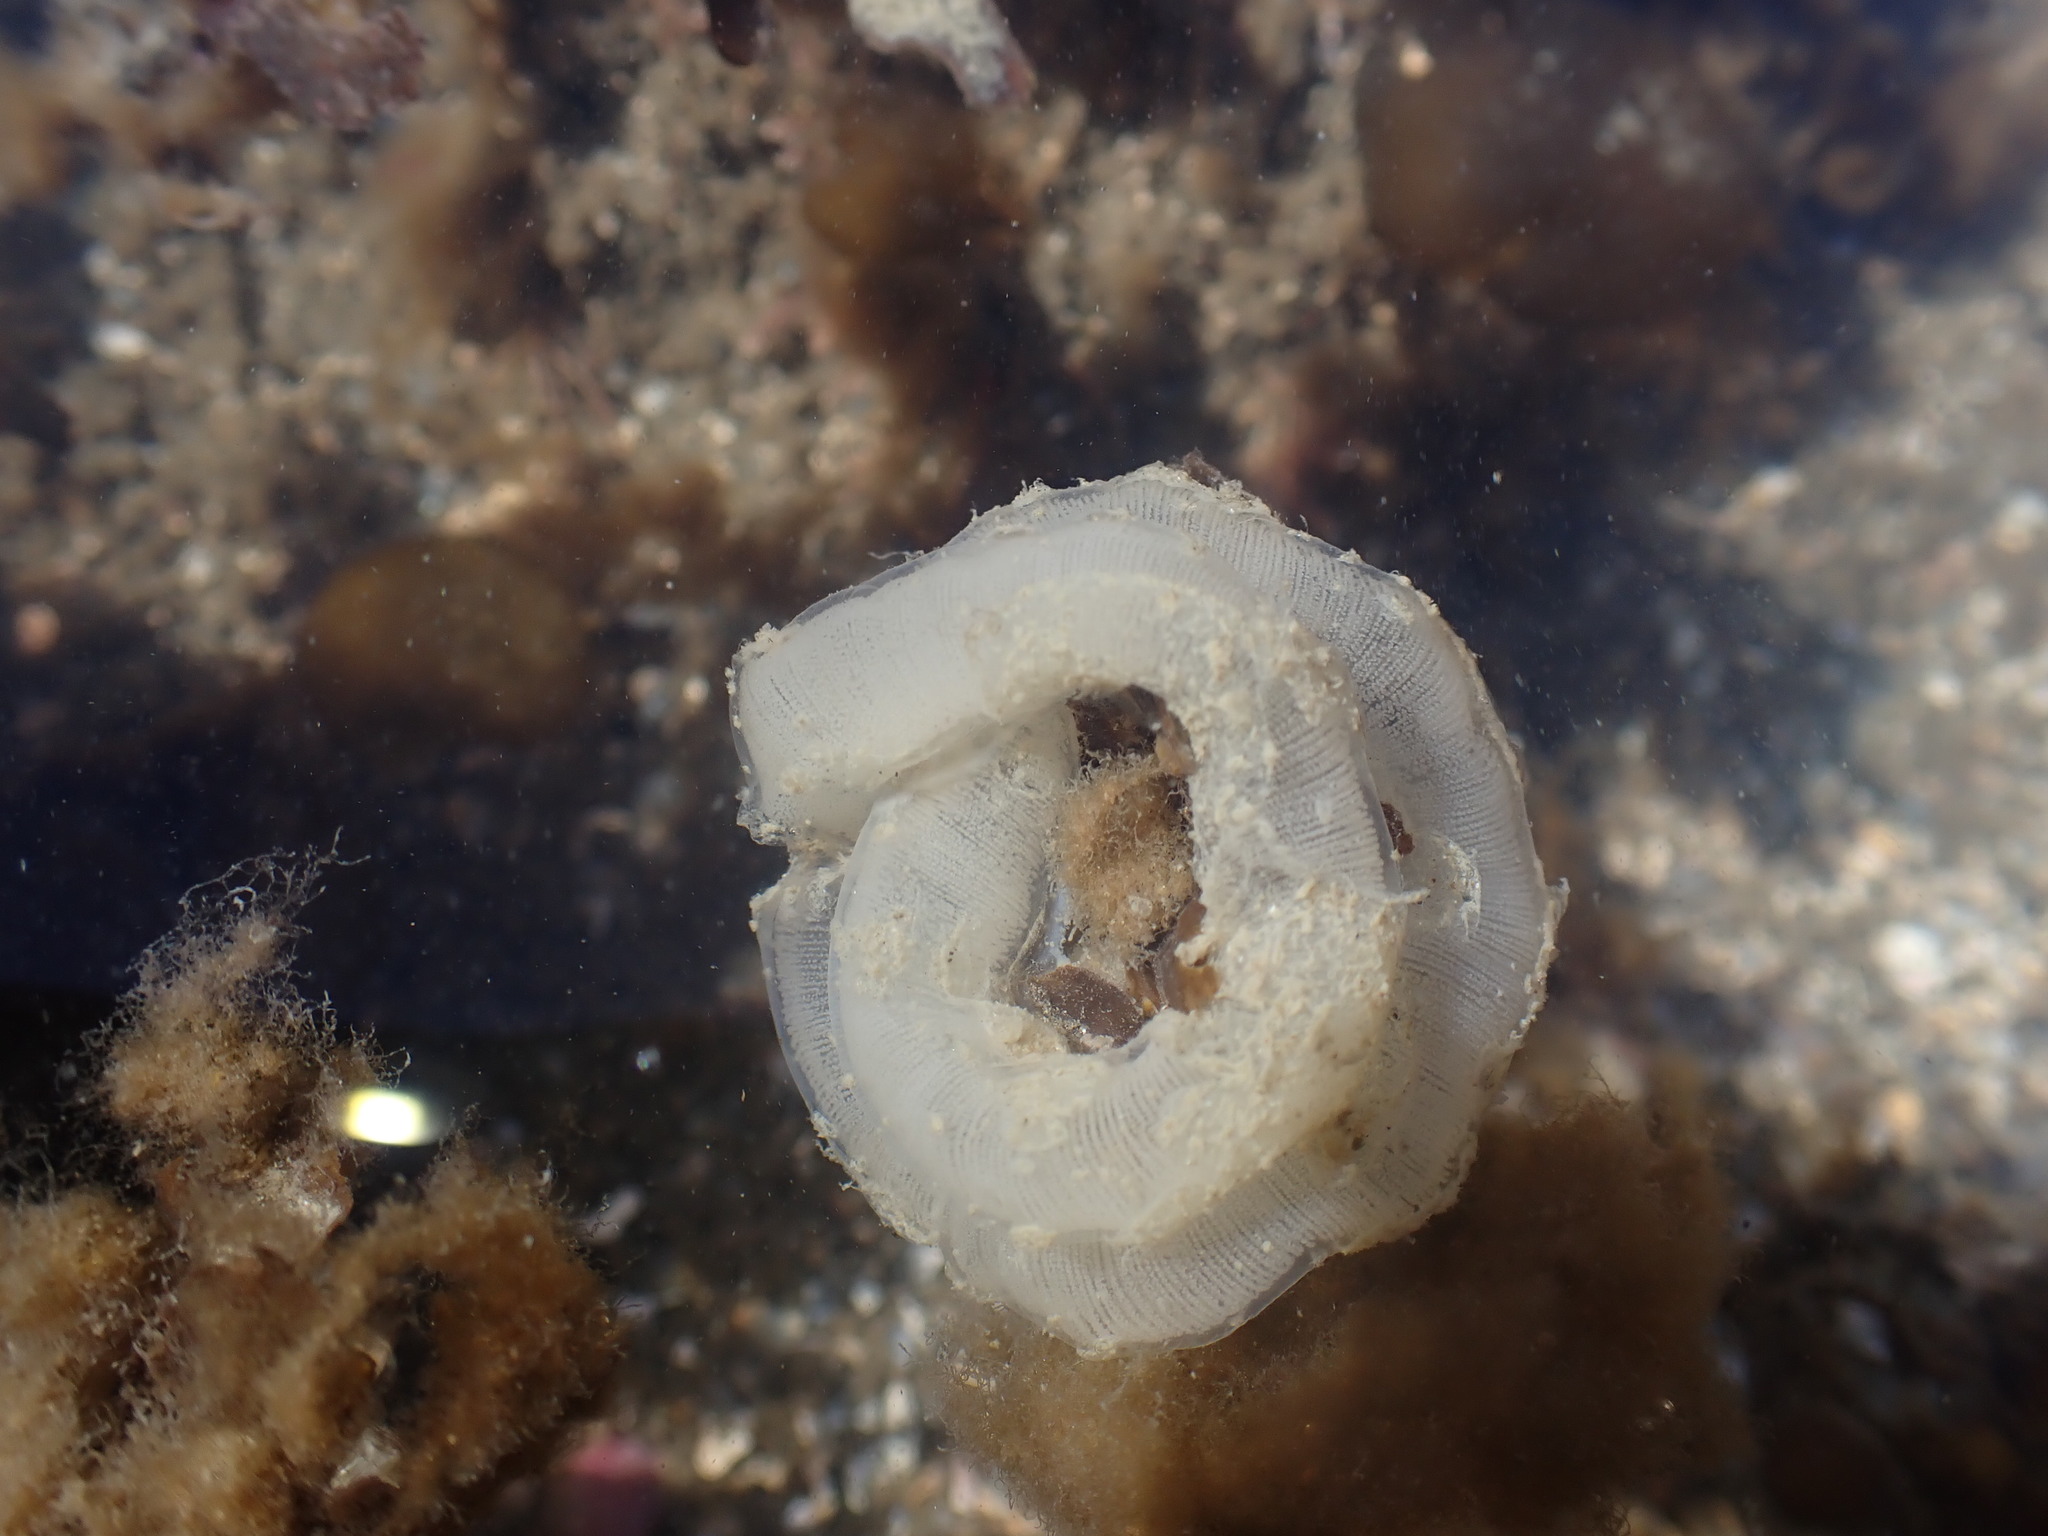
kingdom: Animalia
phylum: Mollusca
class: Gastropoda
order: Pleurobranchida
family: Pleurobranchaeidae
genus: Pleurobranchaea
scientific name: Pleurobranchaea maculata
